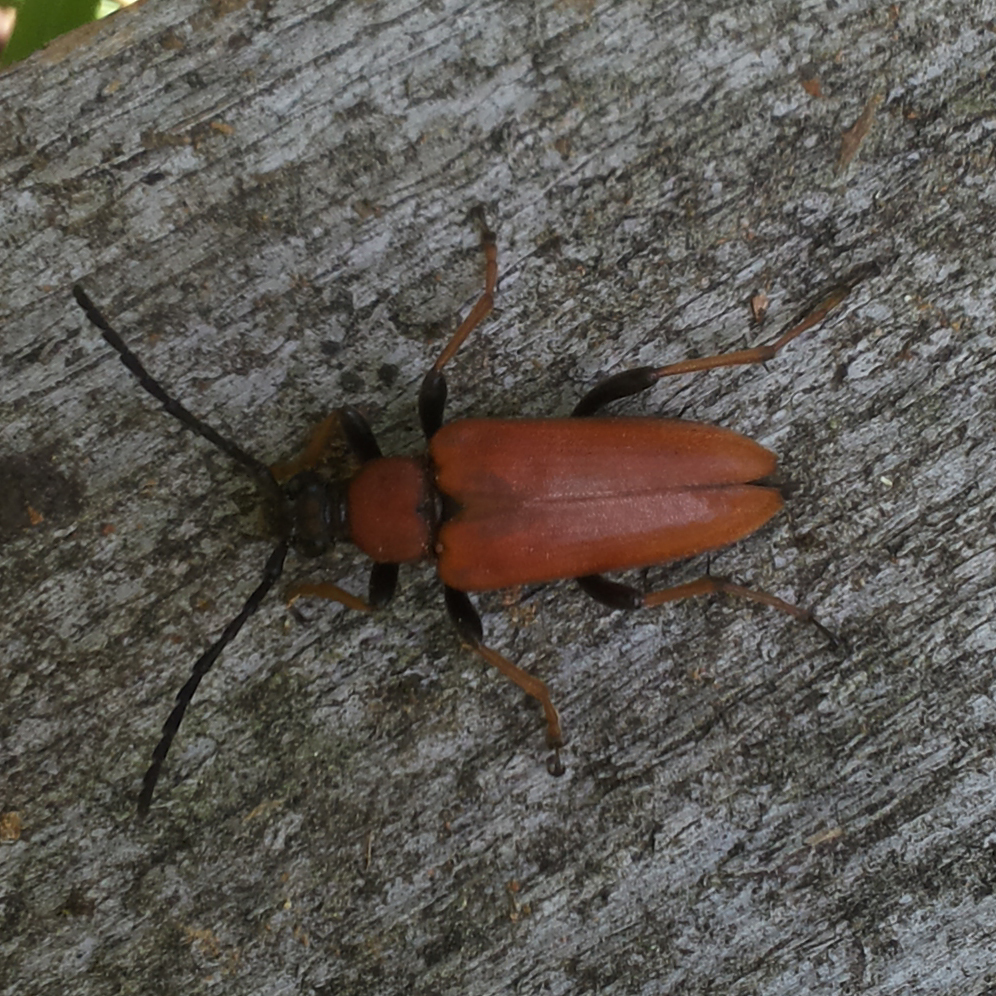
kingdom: Animalia
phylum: Arthropoda
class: Insecta
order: Coleoptera
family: Cerambycidae
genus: Stictoleptura
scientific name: Stictoleptura rubra
